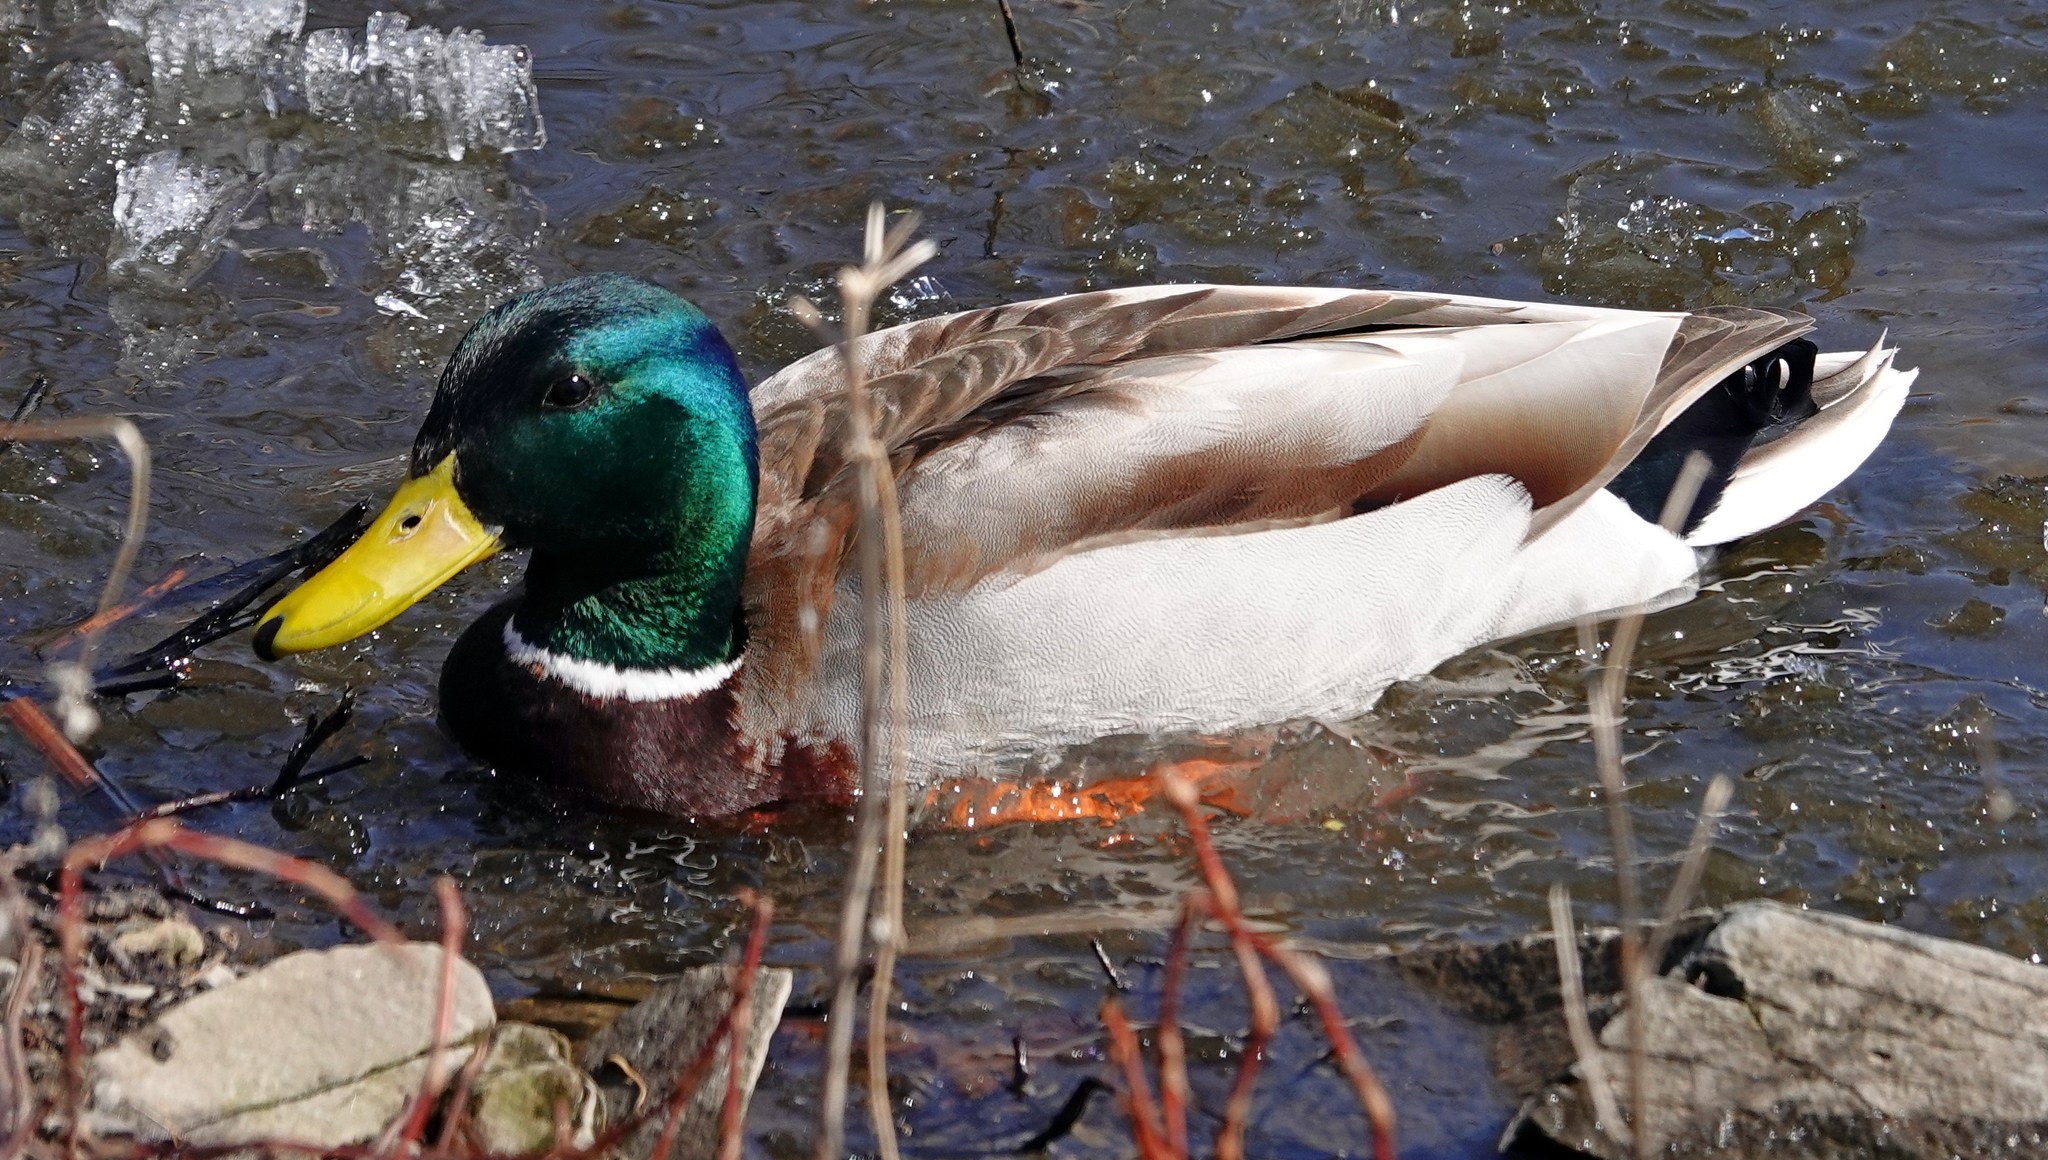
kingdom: Animalia
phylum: Chordata
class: Aves
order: Anseriformes
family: Anatidae
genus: Anas
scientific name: Anas platyrhynchos
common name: Mallard
